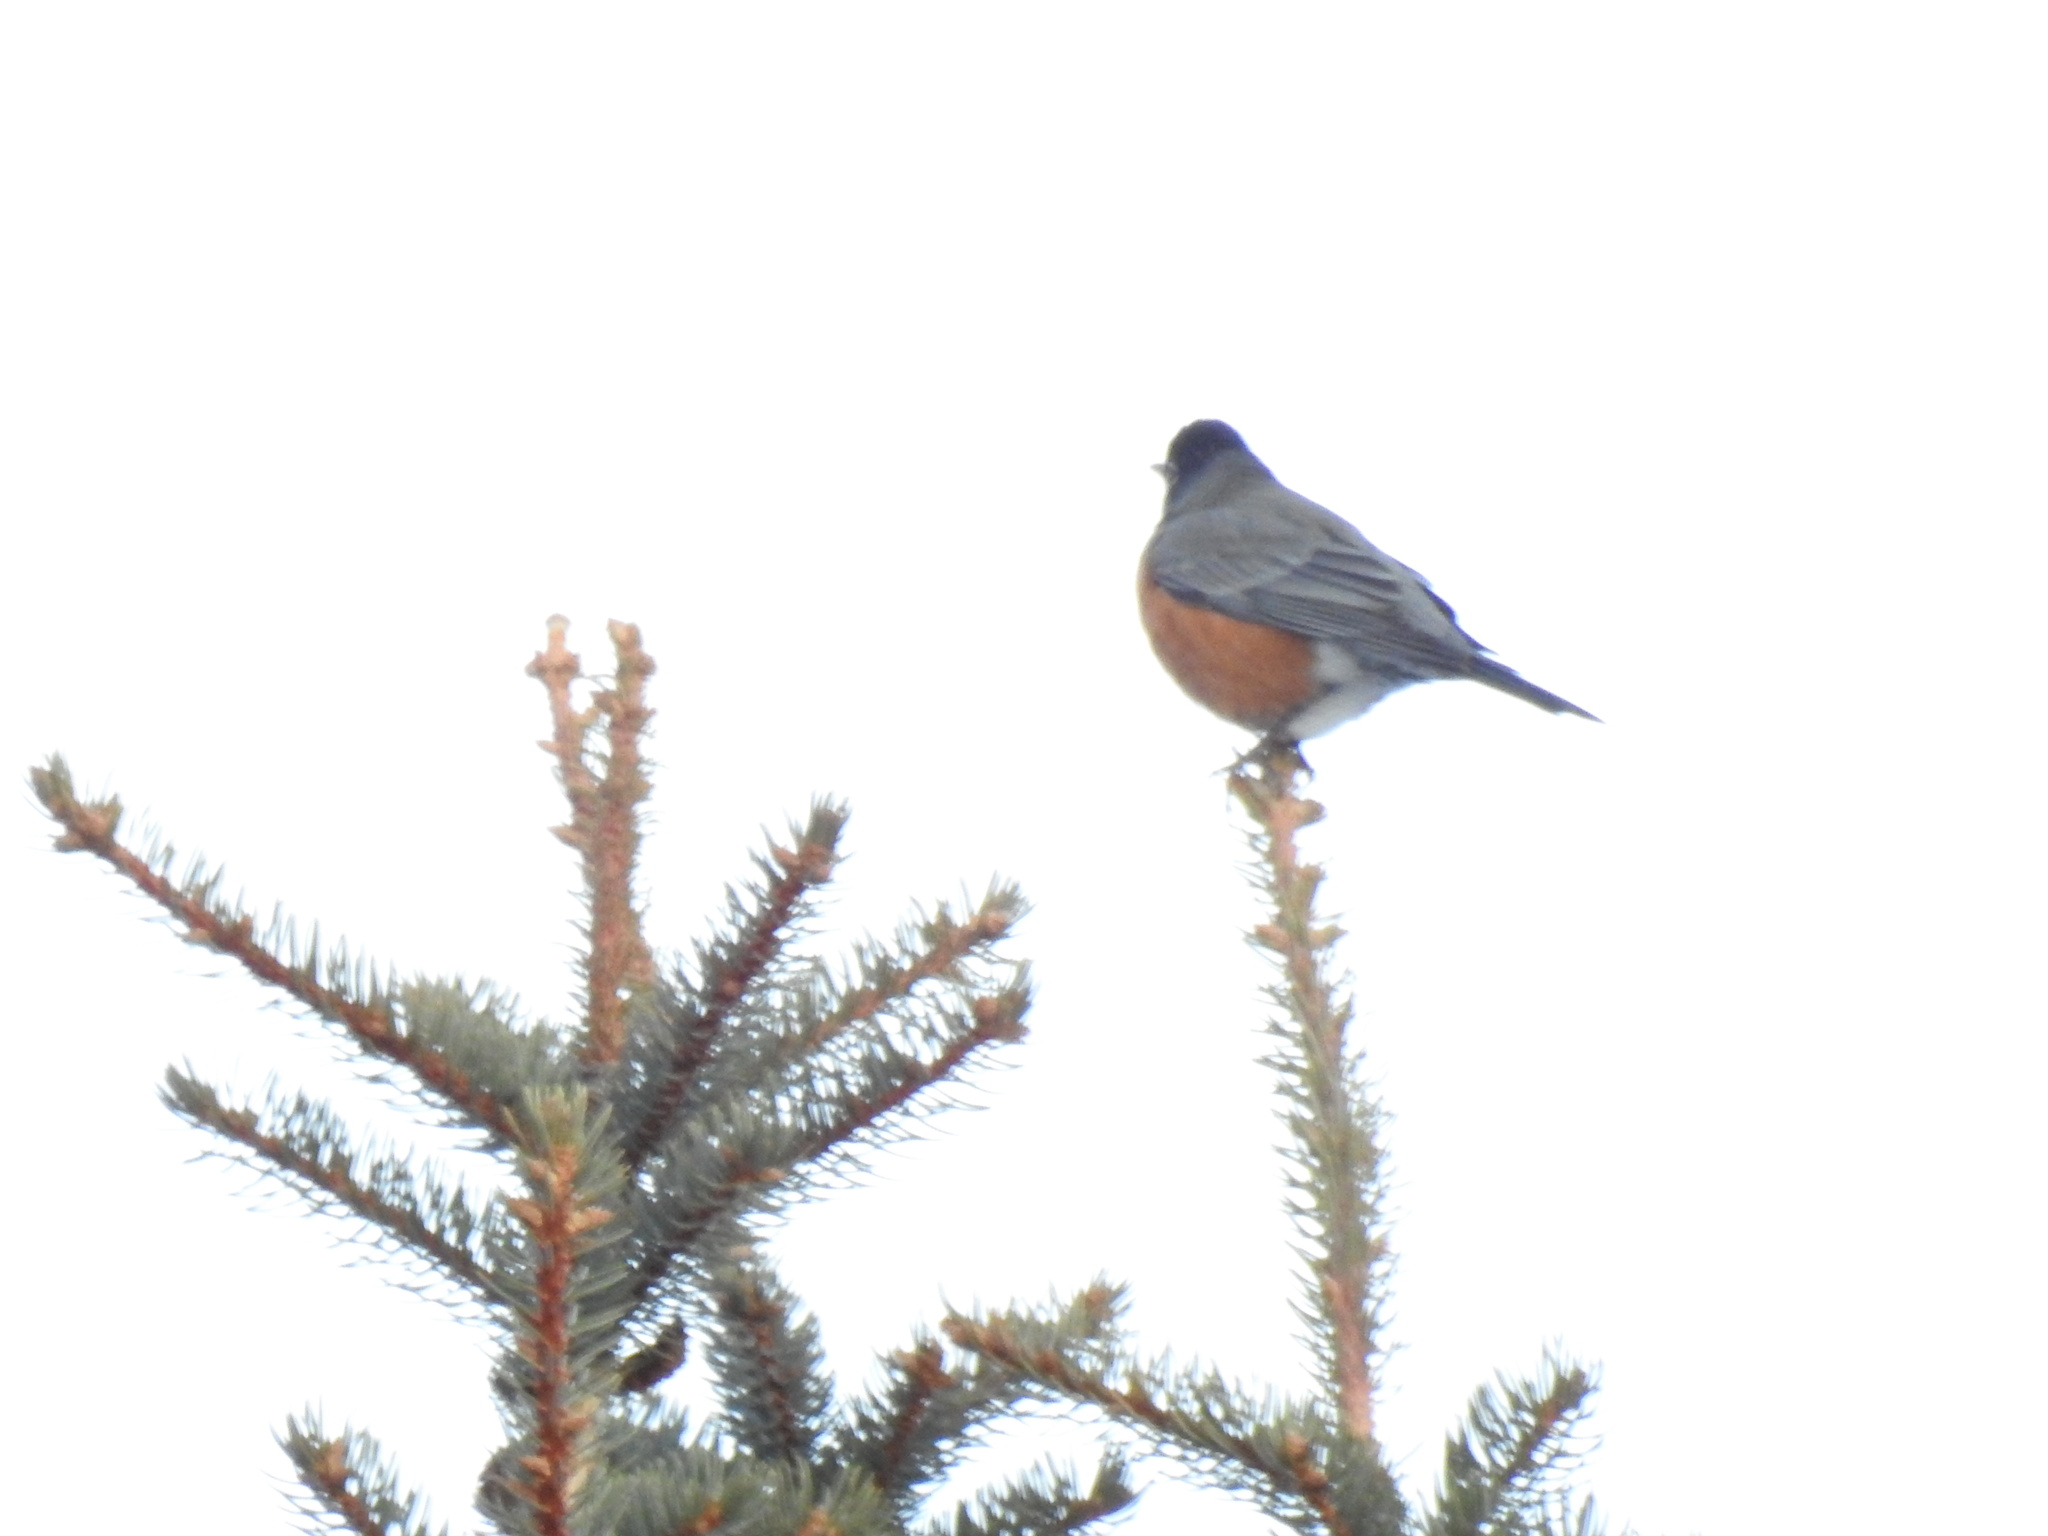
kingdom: Animalia
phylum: Chordata
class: Aves
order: Passeriformes
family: Turdidae
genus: Turdus
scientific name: Turdus migratorius
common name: American robin
